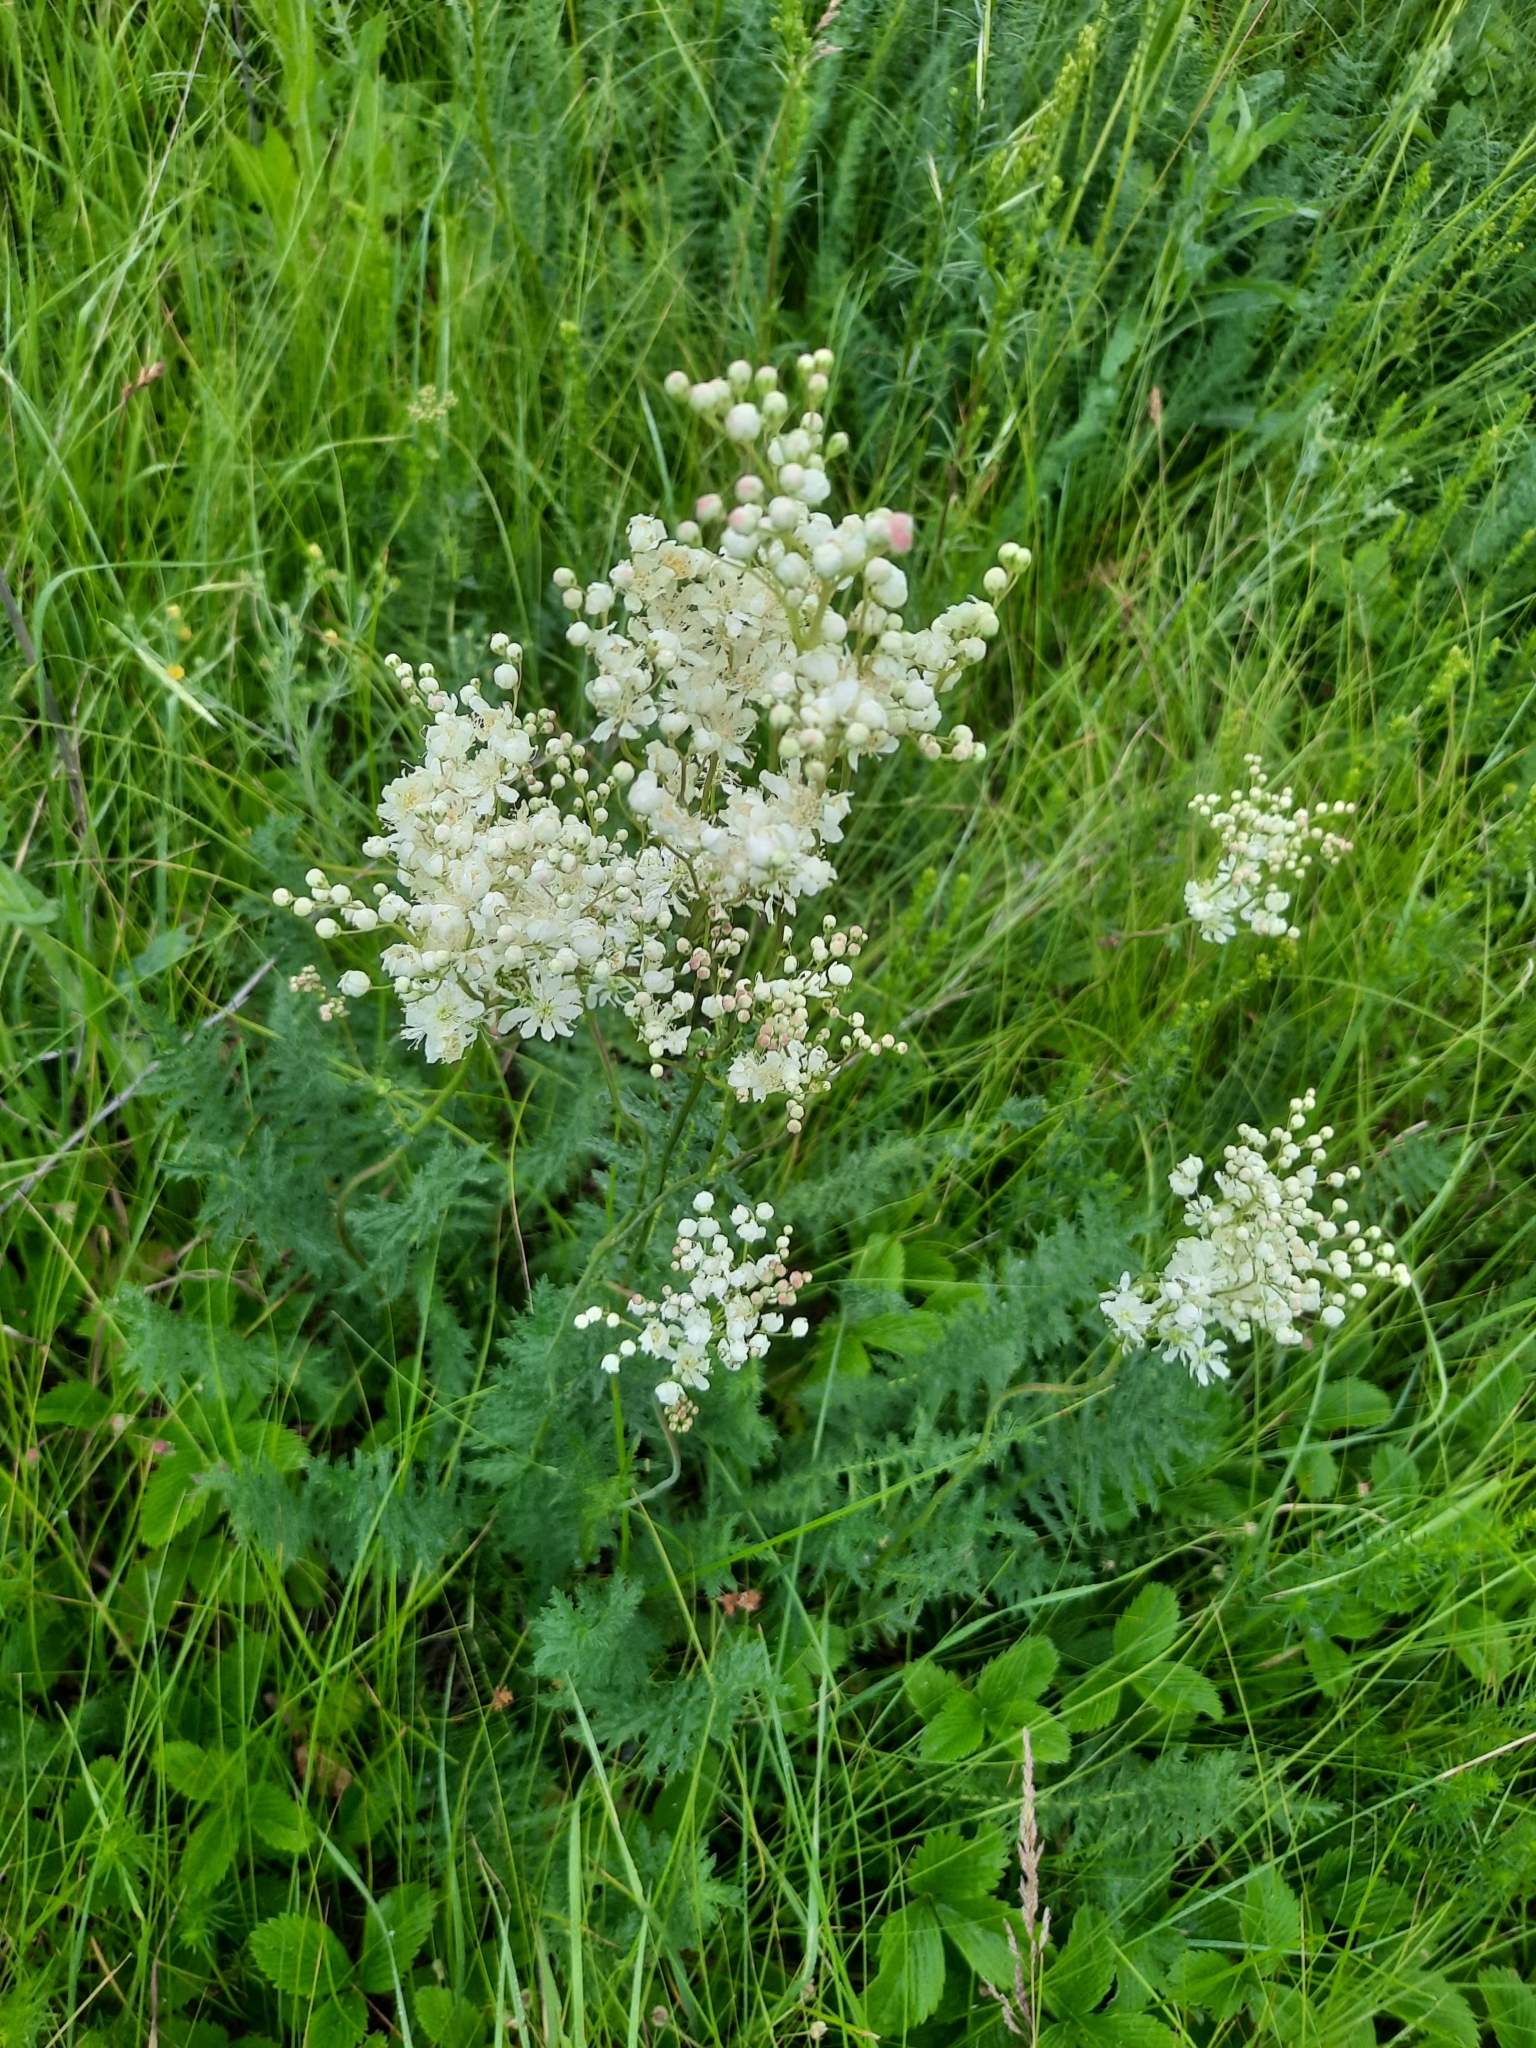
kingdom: Plantae
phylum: Tracheophyta
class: Magnoliopsida
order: Rosales
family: Rosaceae
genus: Filipendula
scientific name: Filipendula vulgaris
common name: Dropwort
